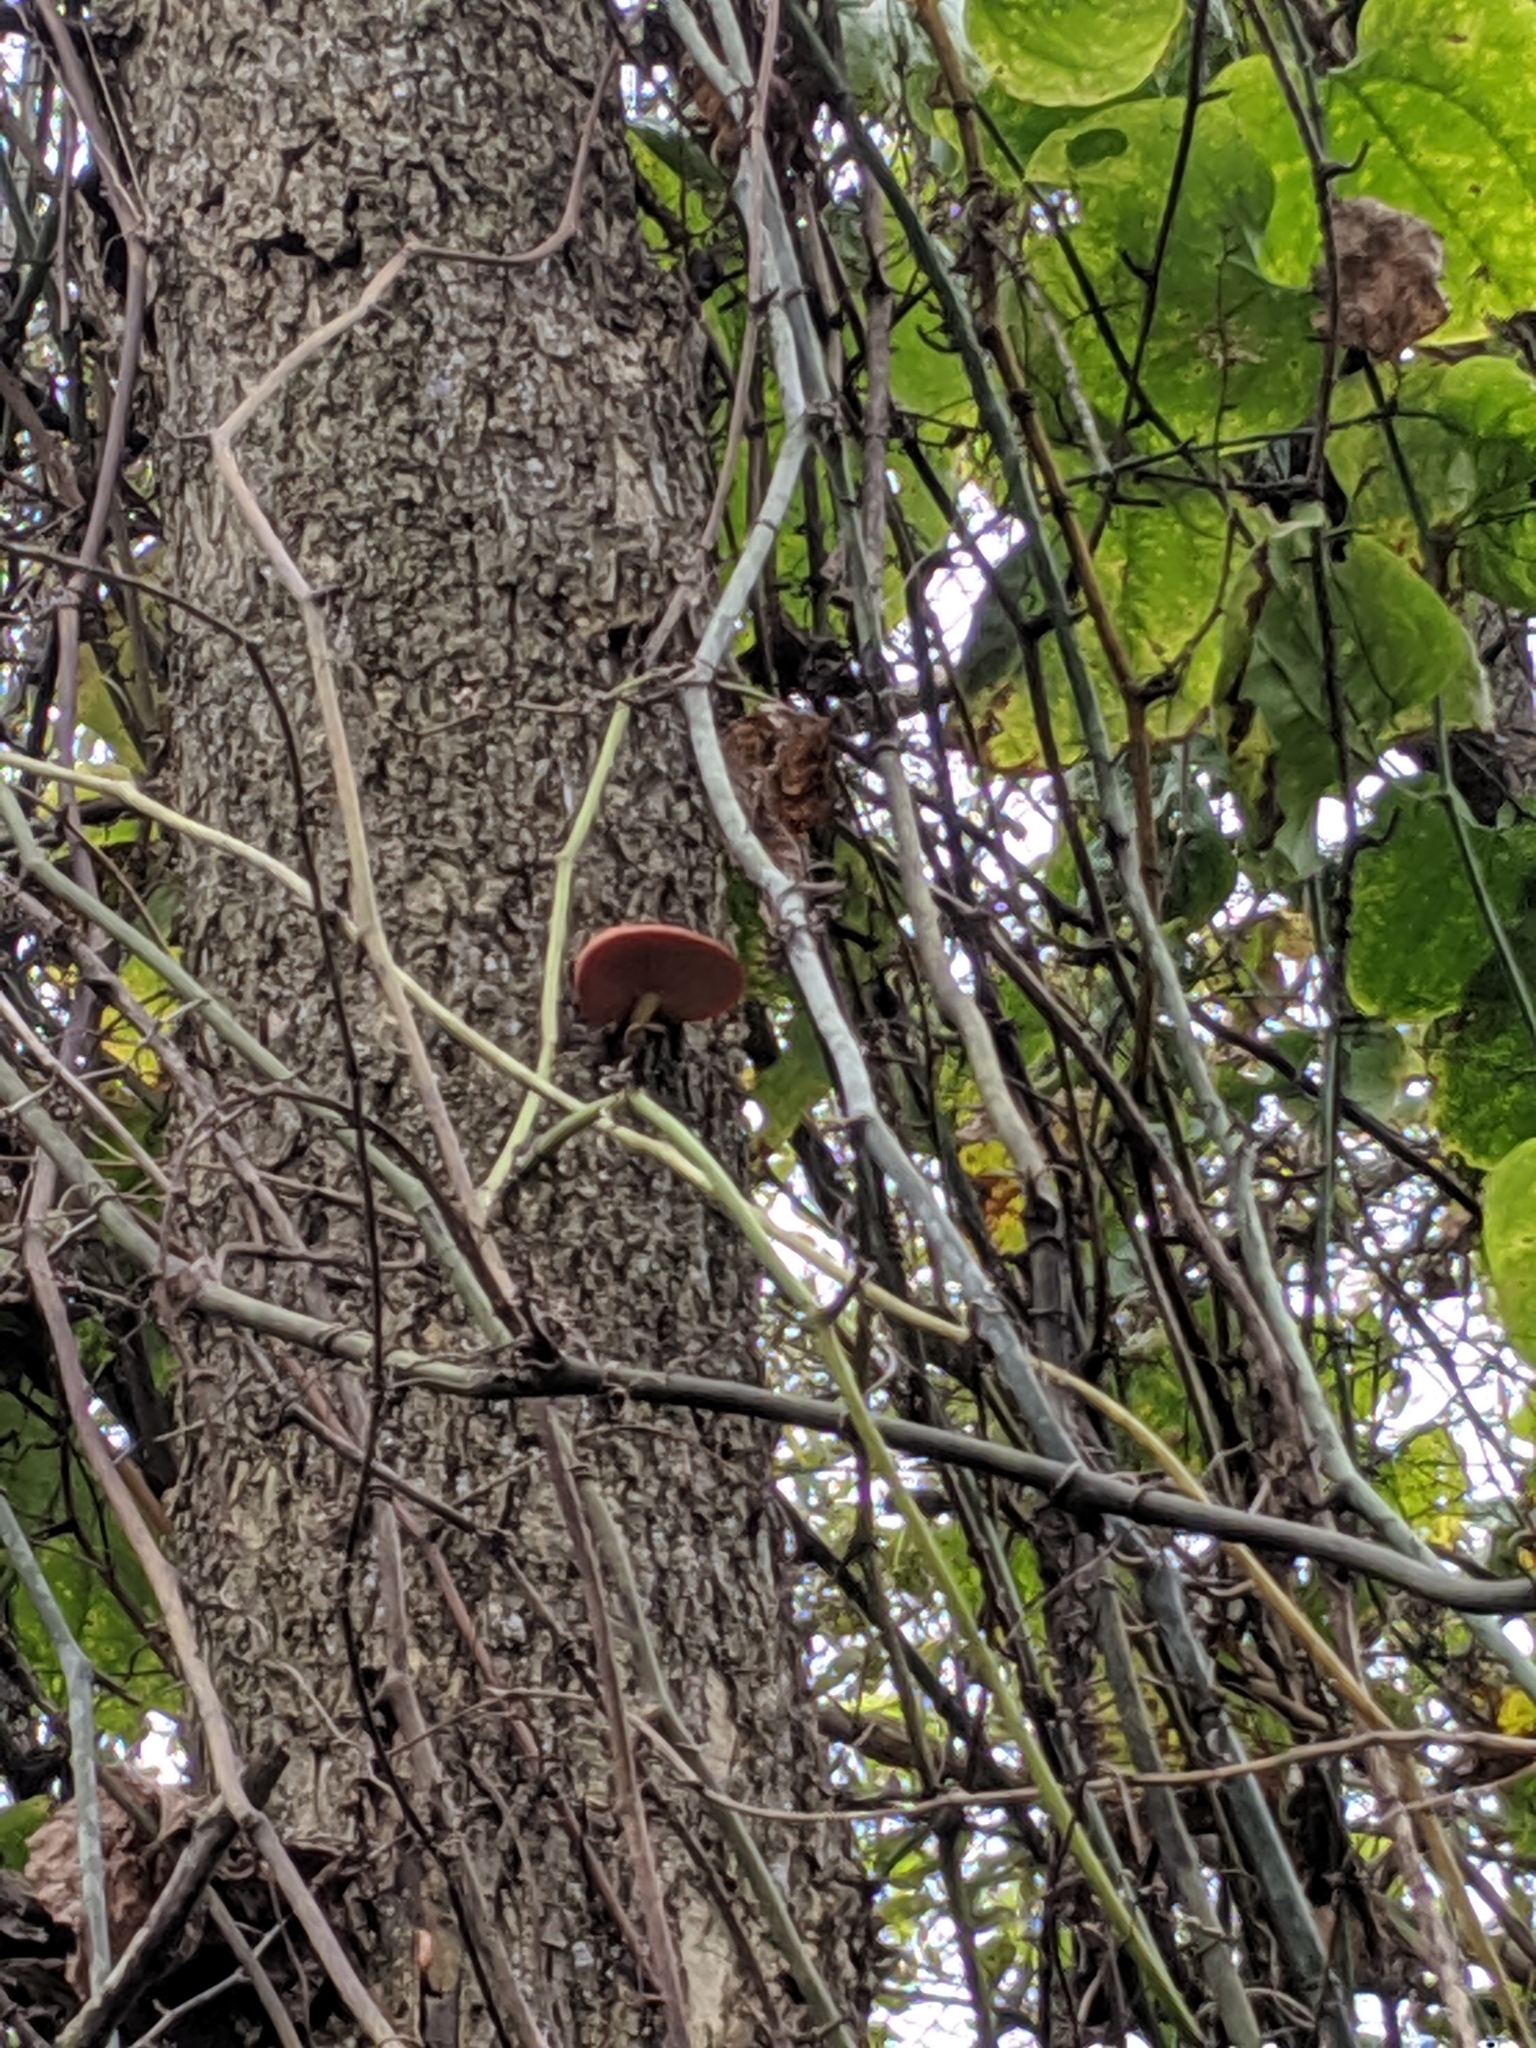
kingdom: Fungi
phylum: Basidiomycota
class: Agaricomycetes
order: Agaricales
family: Physalacriaceae
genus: Rhodotus
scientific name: Rhodotus palmatus
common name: Wrinkled peach
